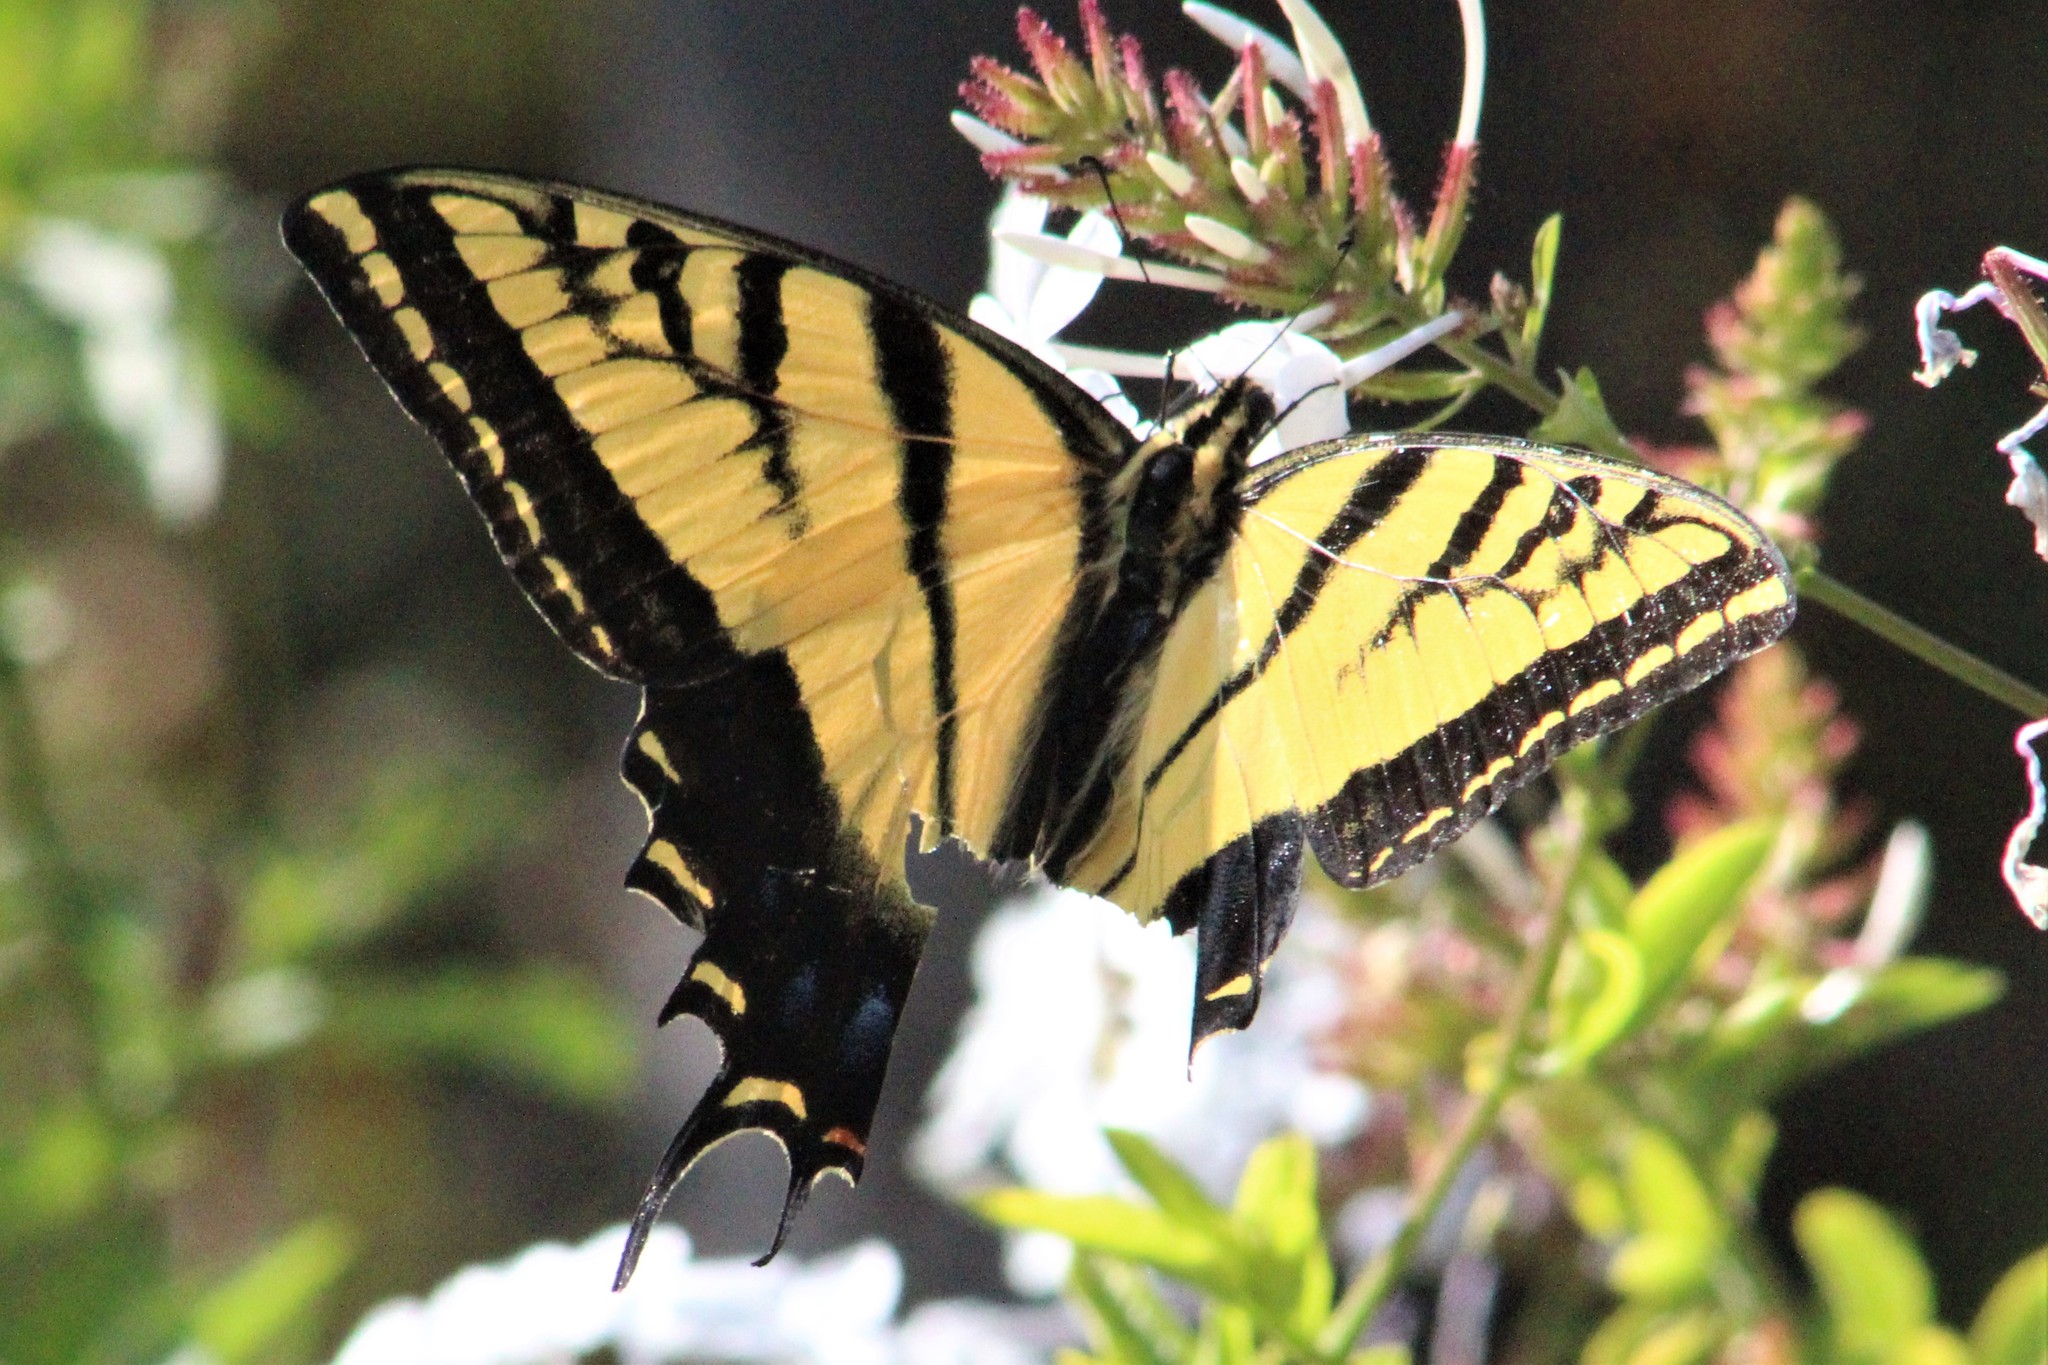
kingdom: Animalia
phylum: Arthropoda
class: Insecta
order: Lepidoptera
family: Papilionidae
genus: Papilio
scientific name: Papilio multicaudata
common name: Two-tailed tiger swallowtail
